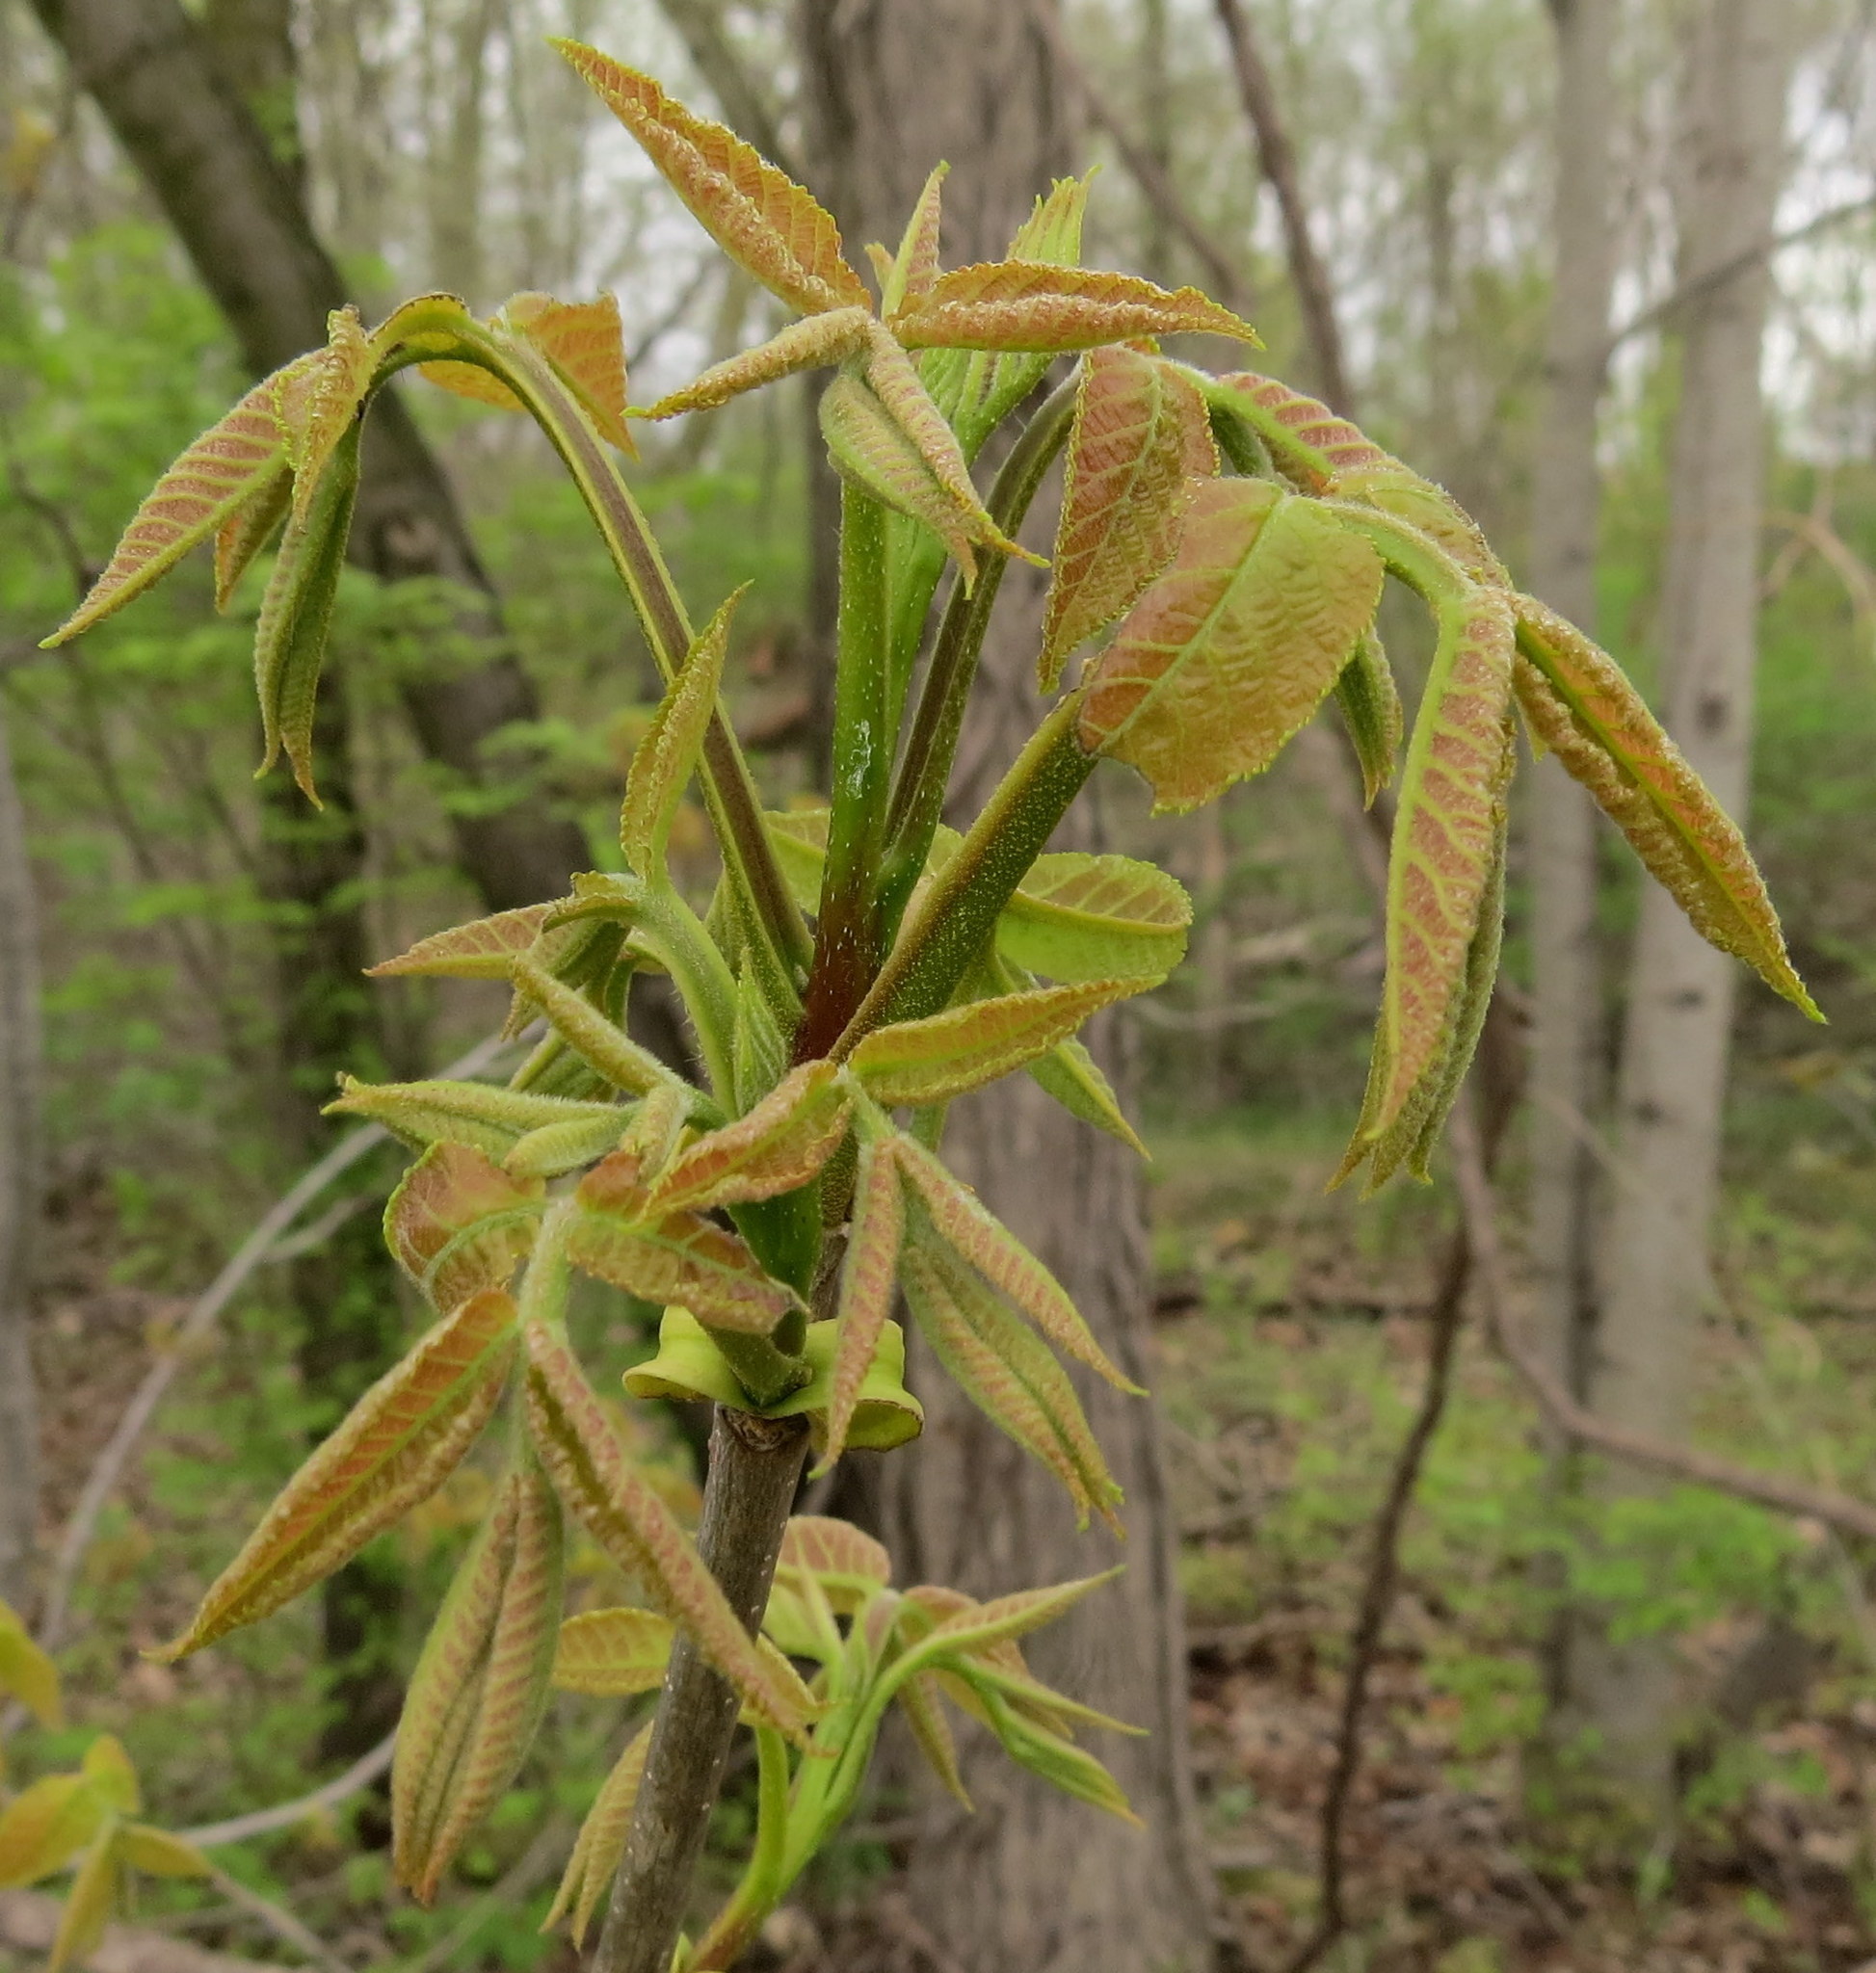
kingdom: Plantae
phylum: Tracheophyta
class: Magnoliopsida
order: Fagales
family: Juglandaceae
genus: Carya
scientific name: Carya cordiformis
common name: Bitternut hickory
